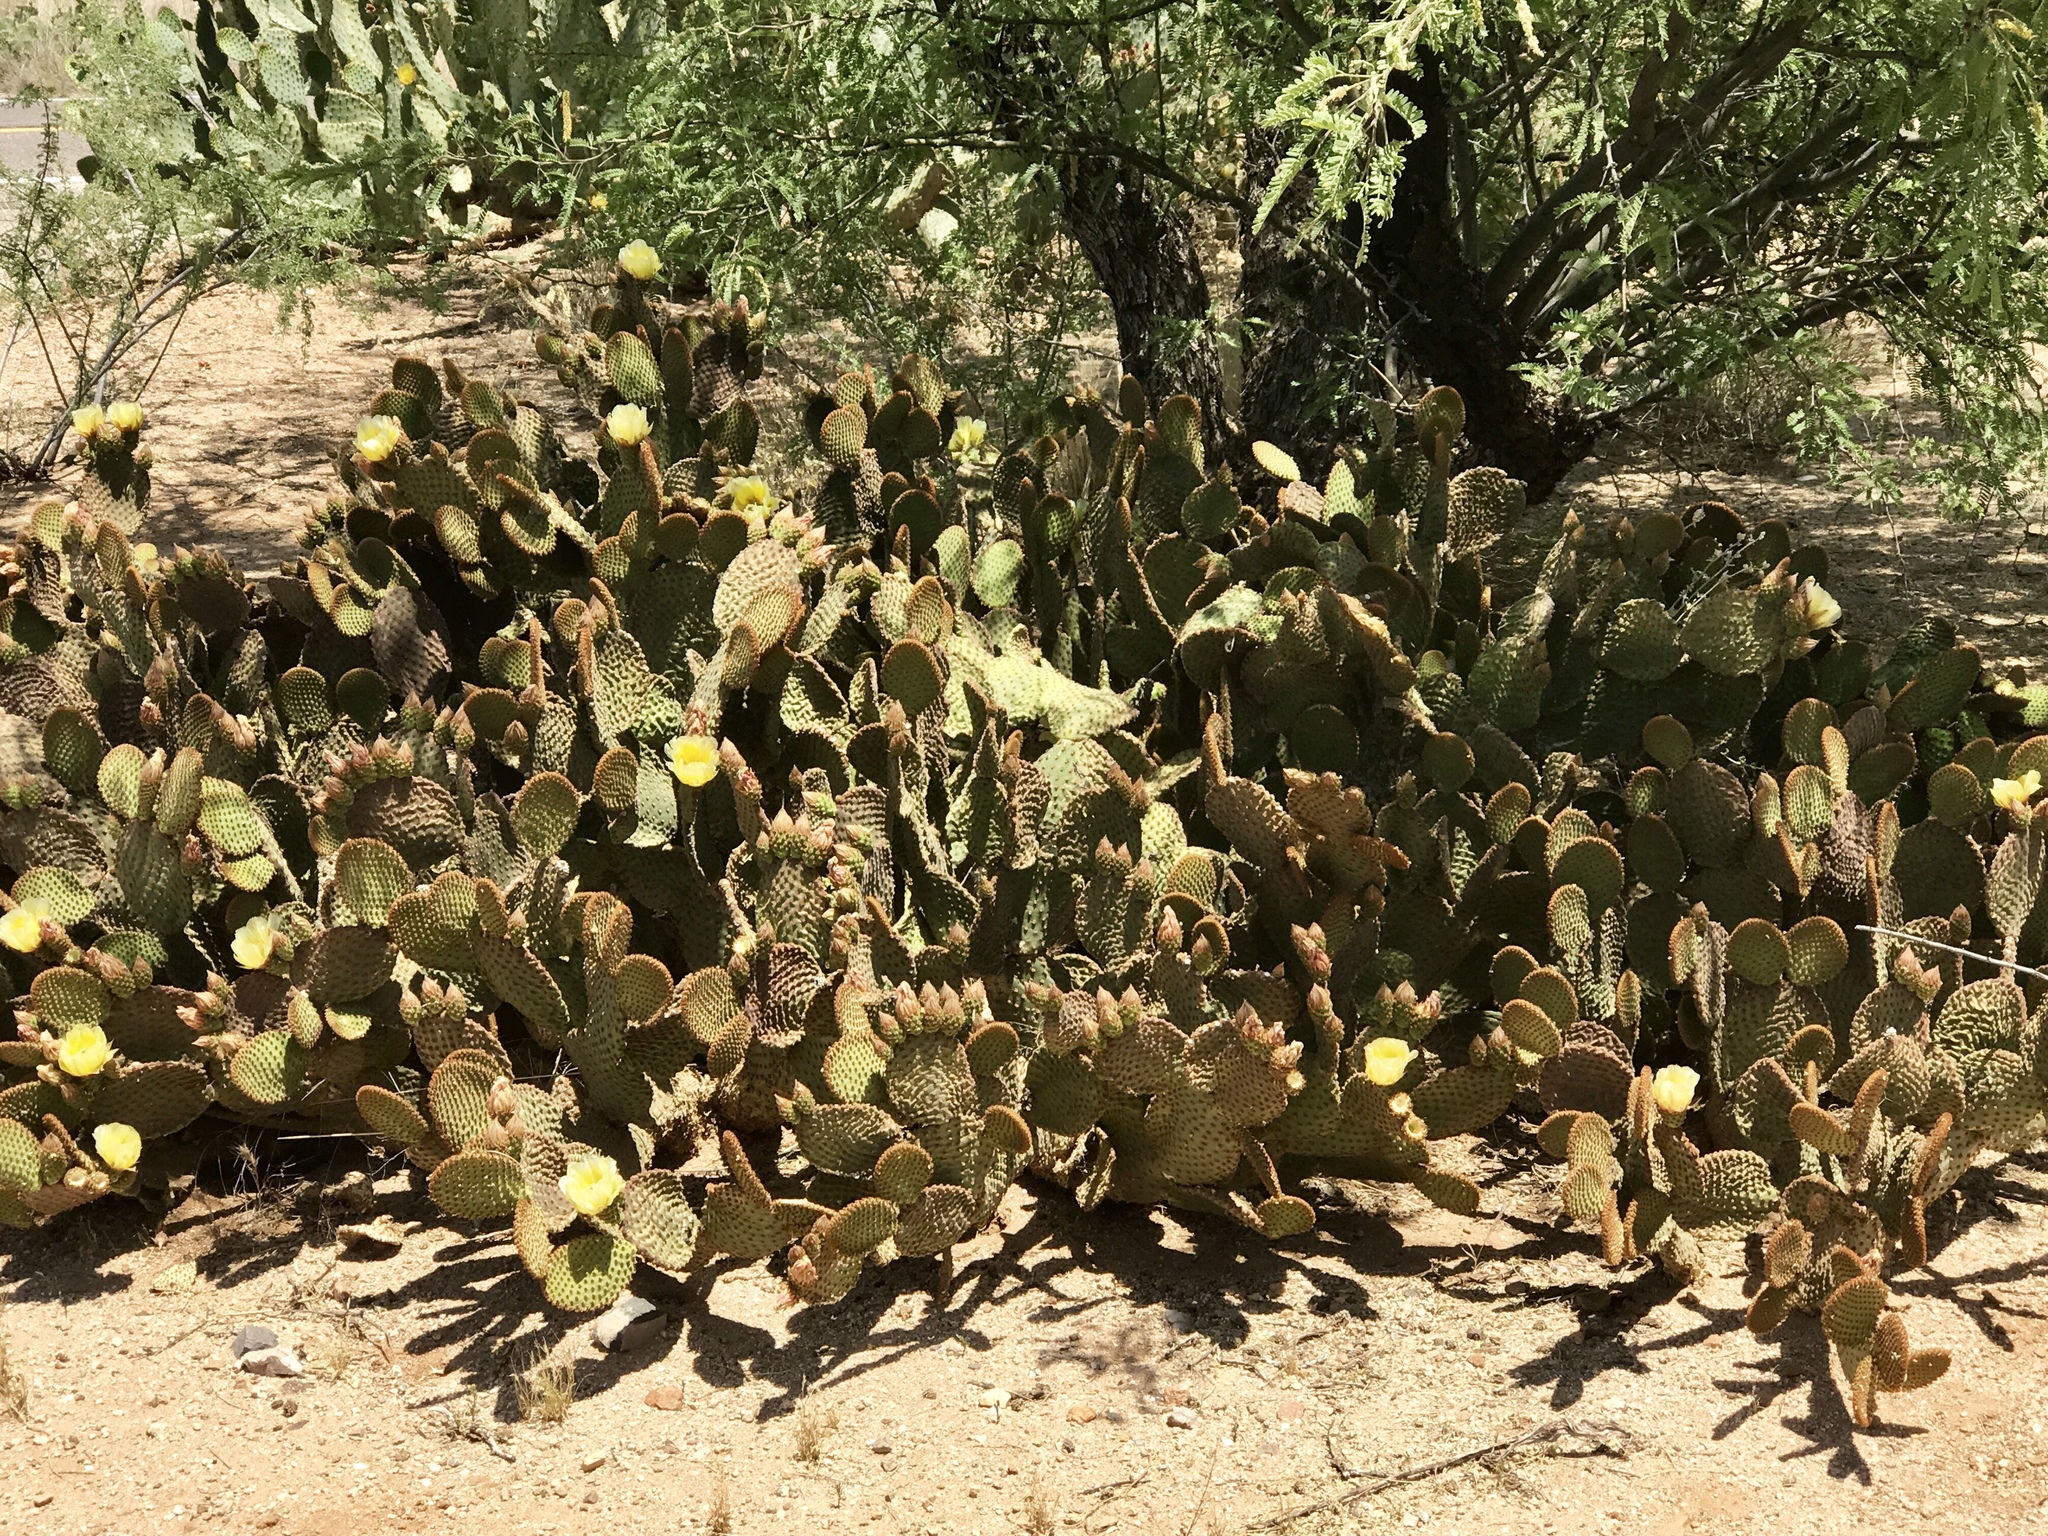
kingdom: Plantae
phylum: Tracheophyta
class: Magnoliopsida
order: Caryophyllales
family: Cactaceae
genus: Opuntia
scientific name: Opuntia microdasys
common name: Angel's-wings
